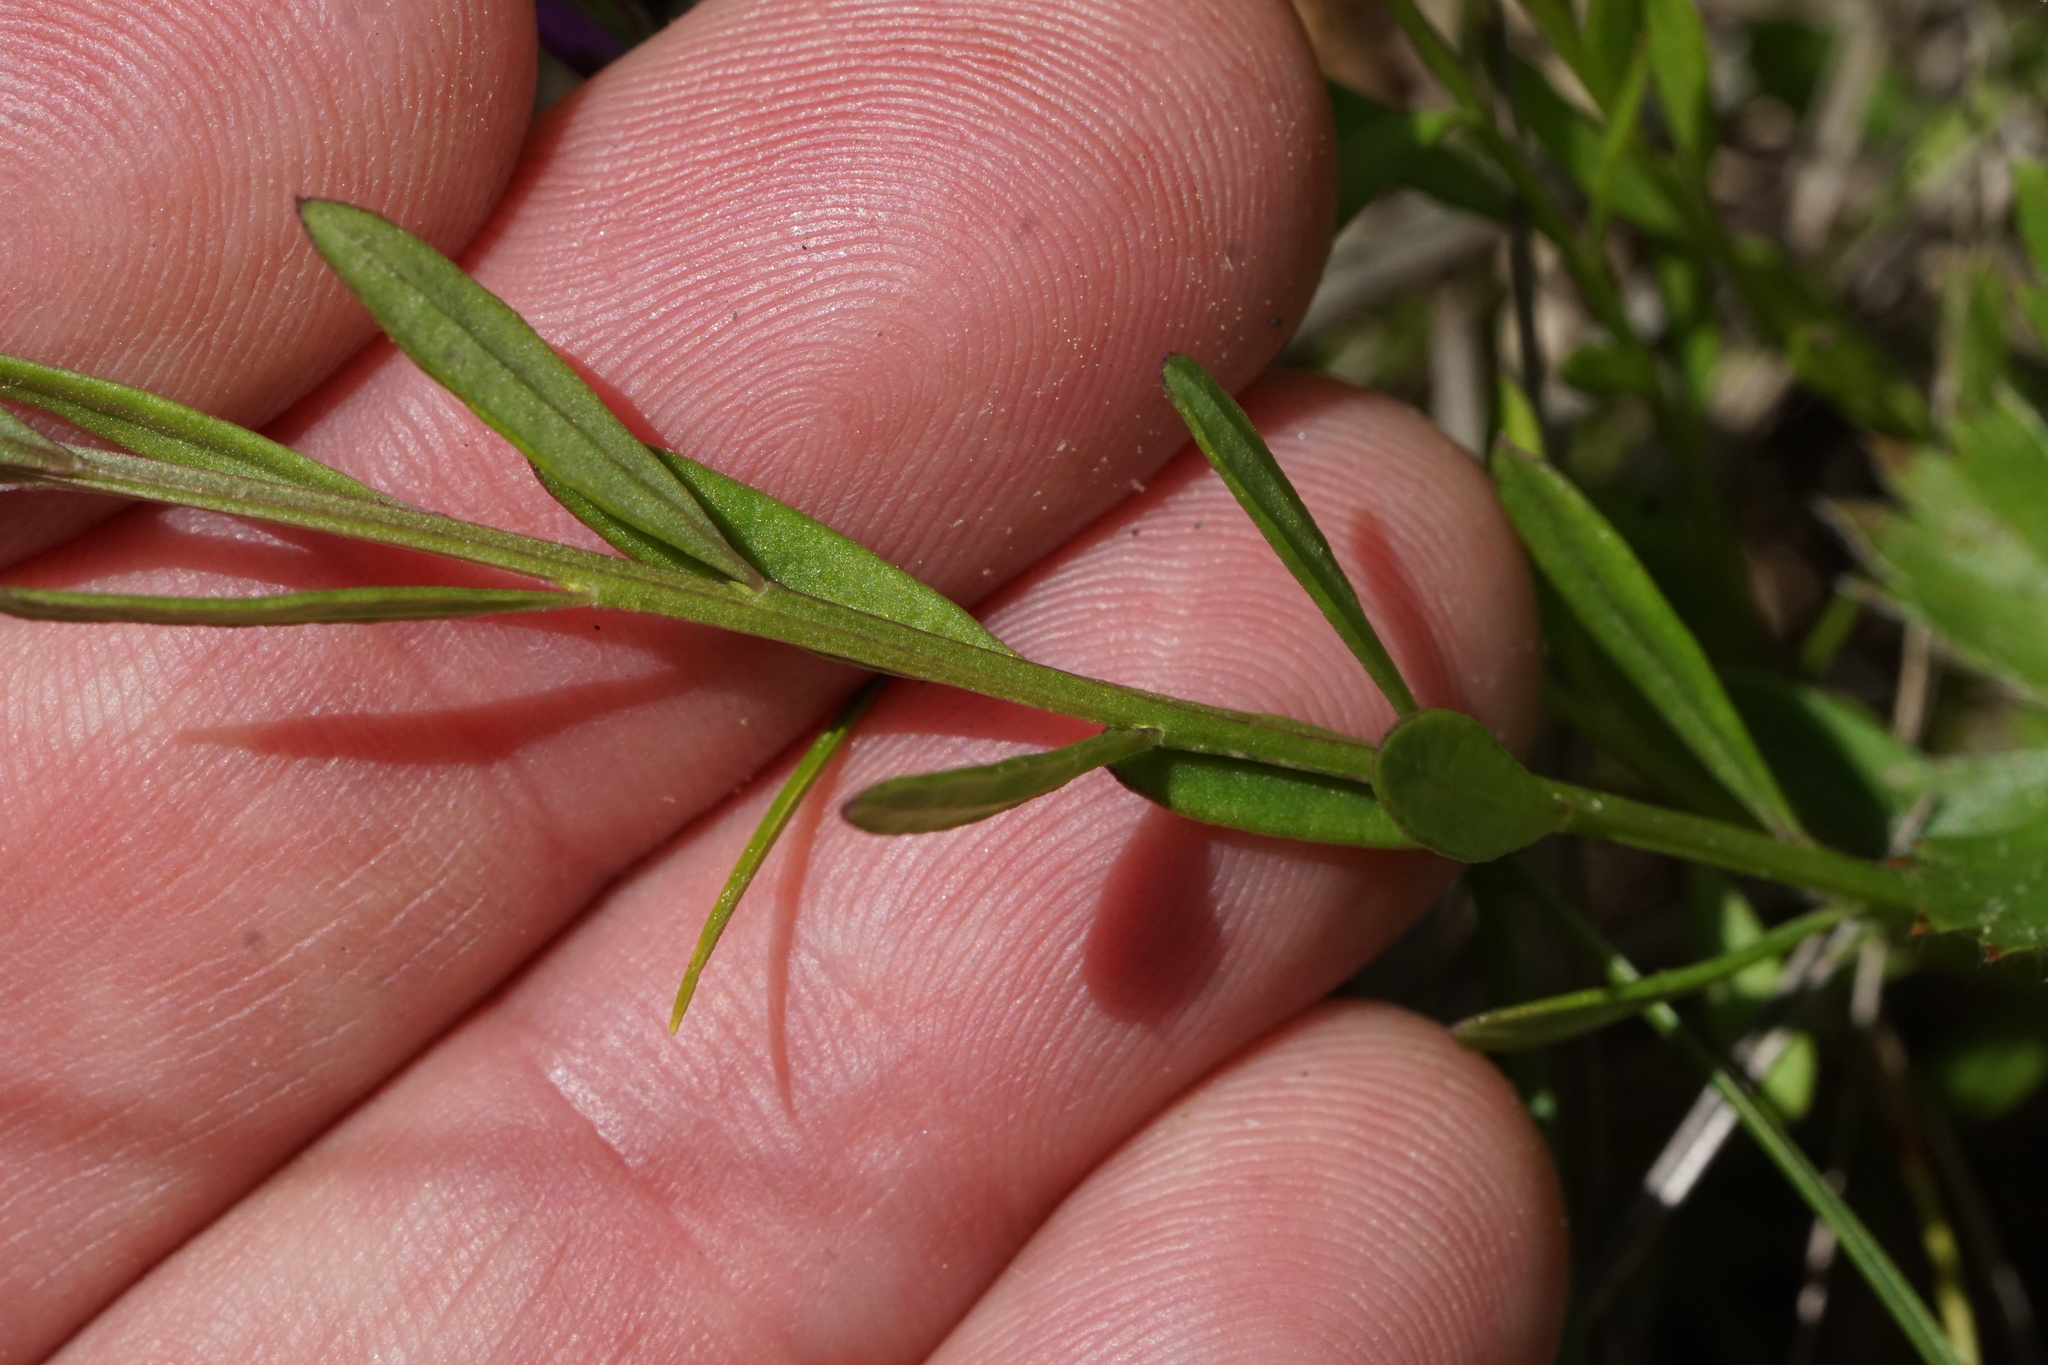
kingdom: Plantae
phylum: Tracheophyta
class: Magnoliopsida
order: Fabales
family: Polygalaceae
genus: Polygala
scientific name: Polygala polygama
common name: Bitter milkwort
